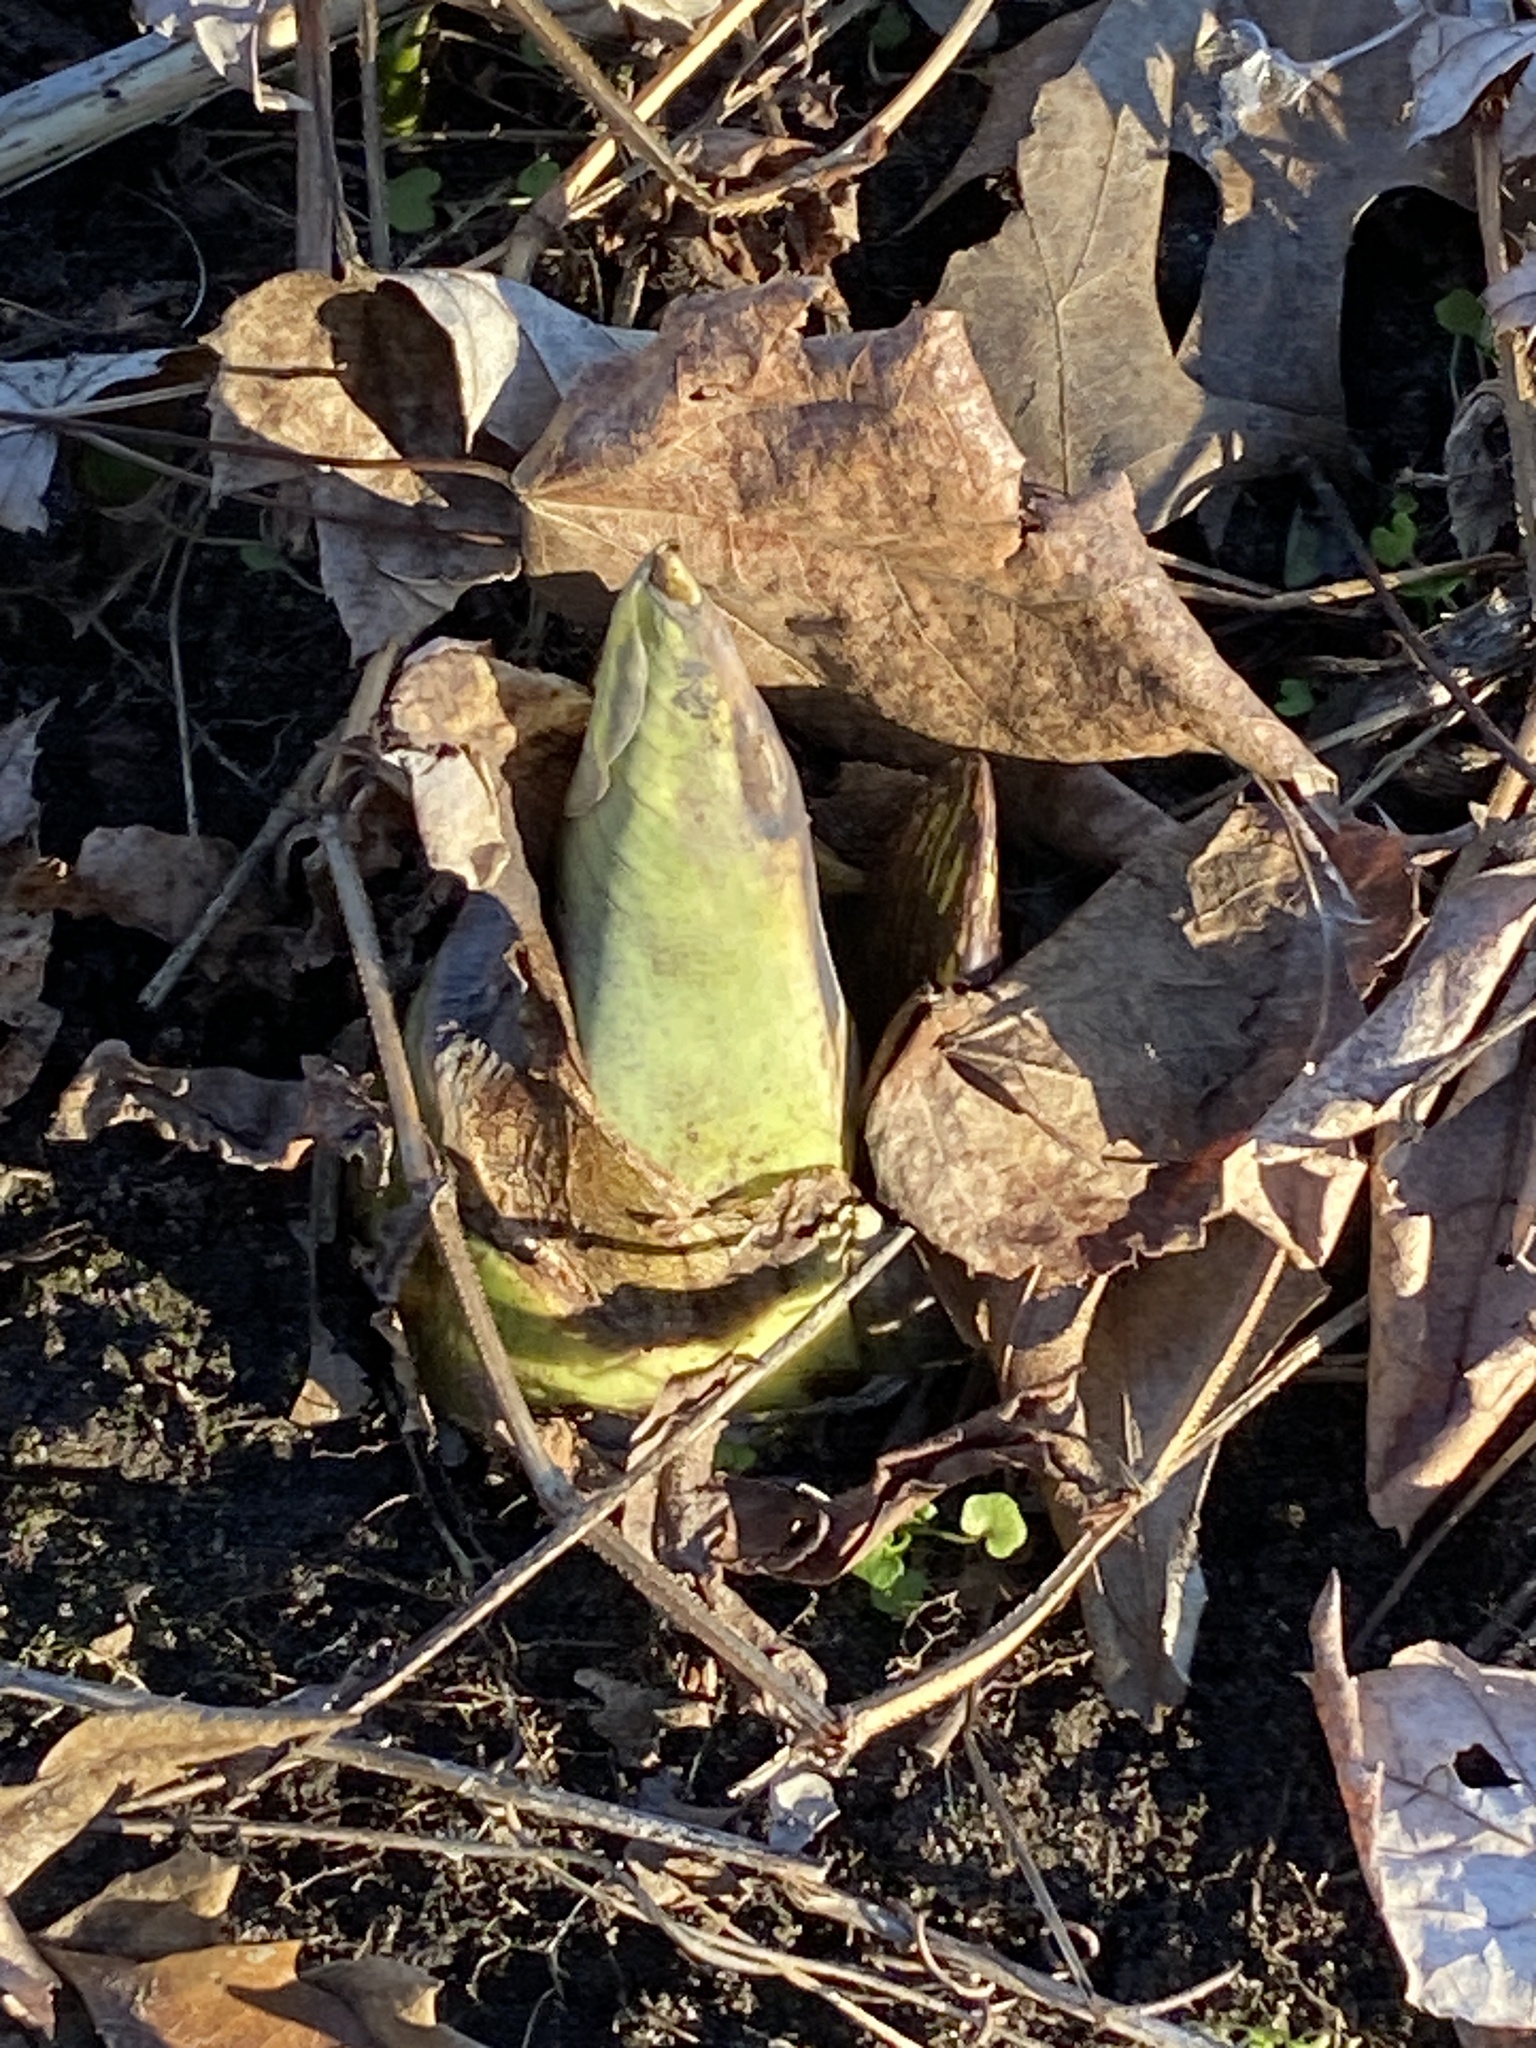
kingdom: Plantae
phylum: Tracheophyta
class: Liliopsida
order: Alismatales
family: Araceae
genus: Symplocarpus
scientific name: Symplocarpus foetidus
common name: Eastern skunk cabbage
